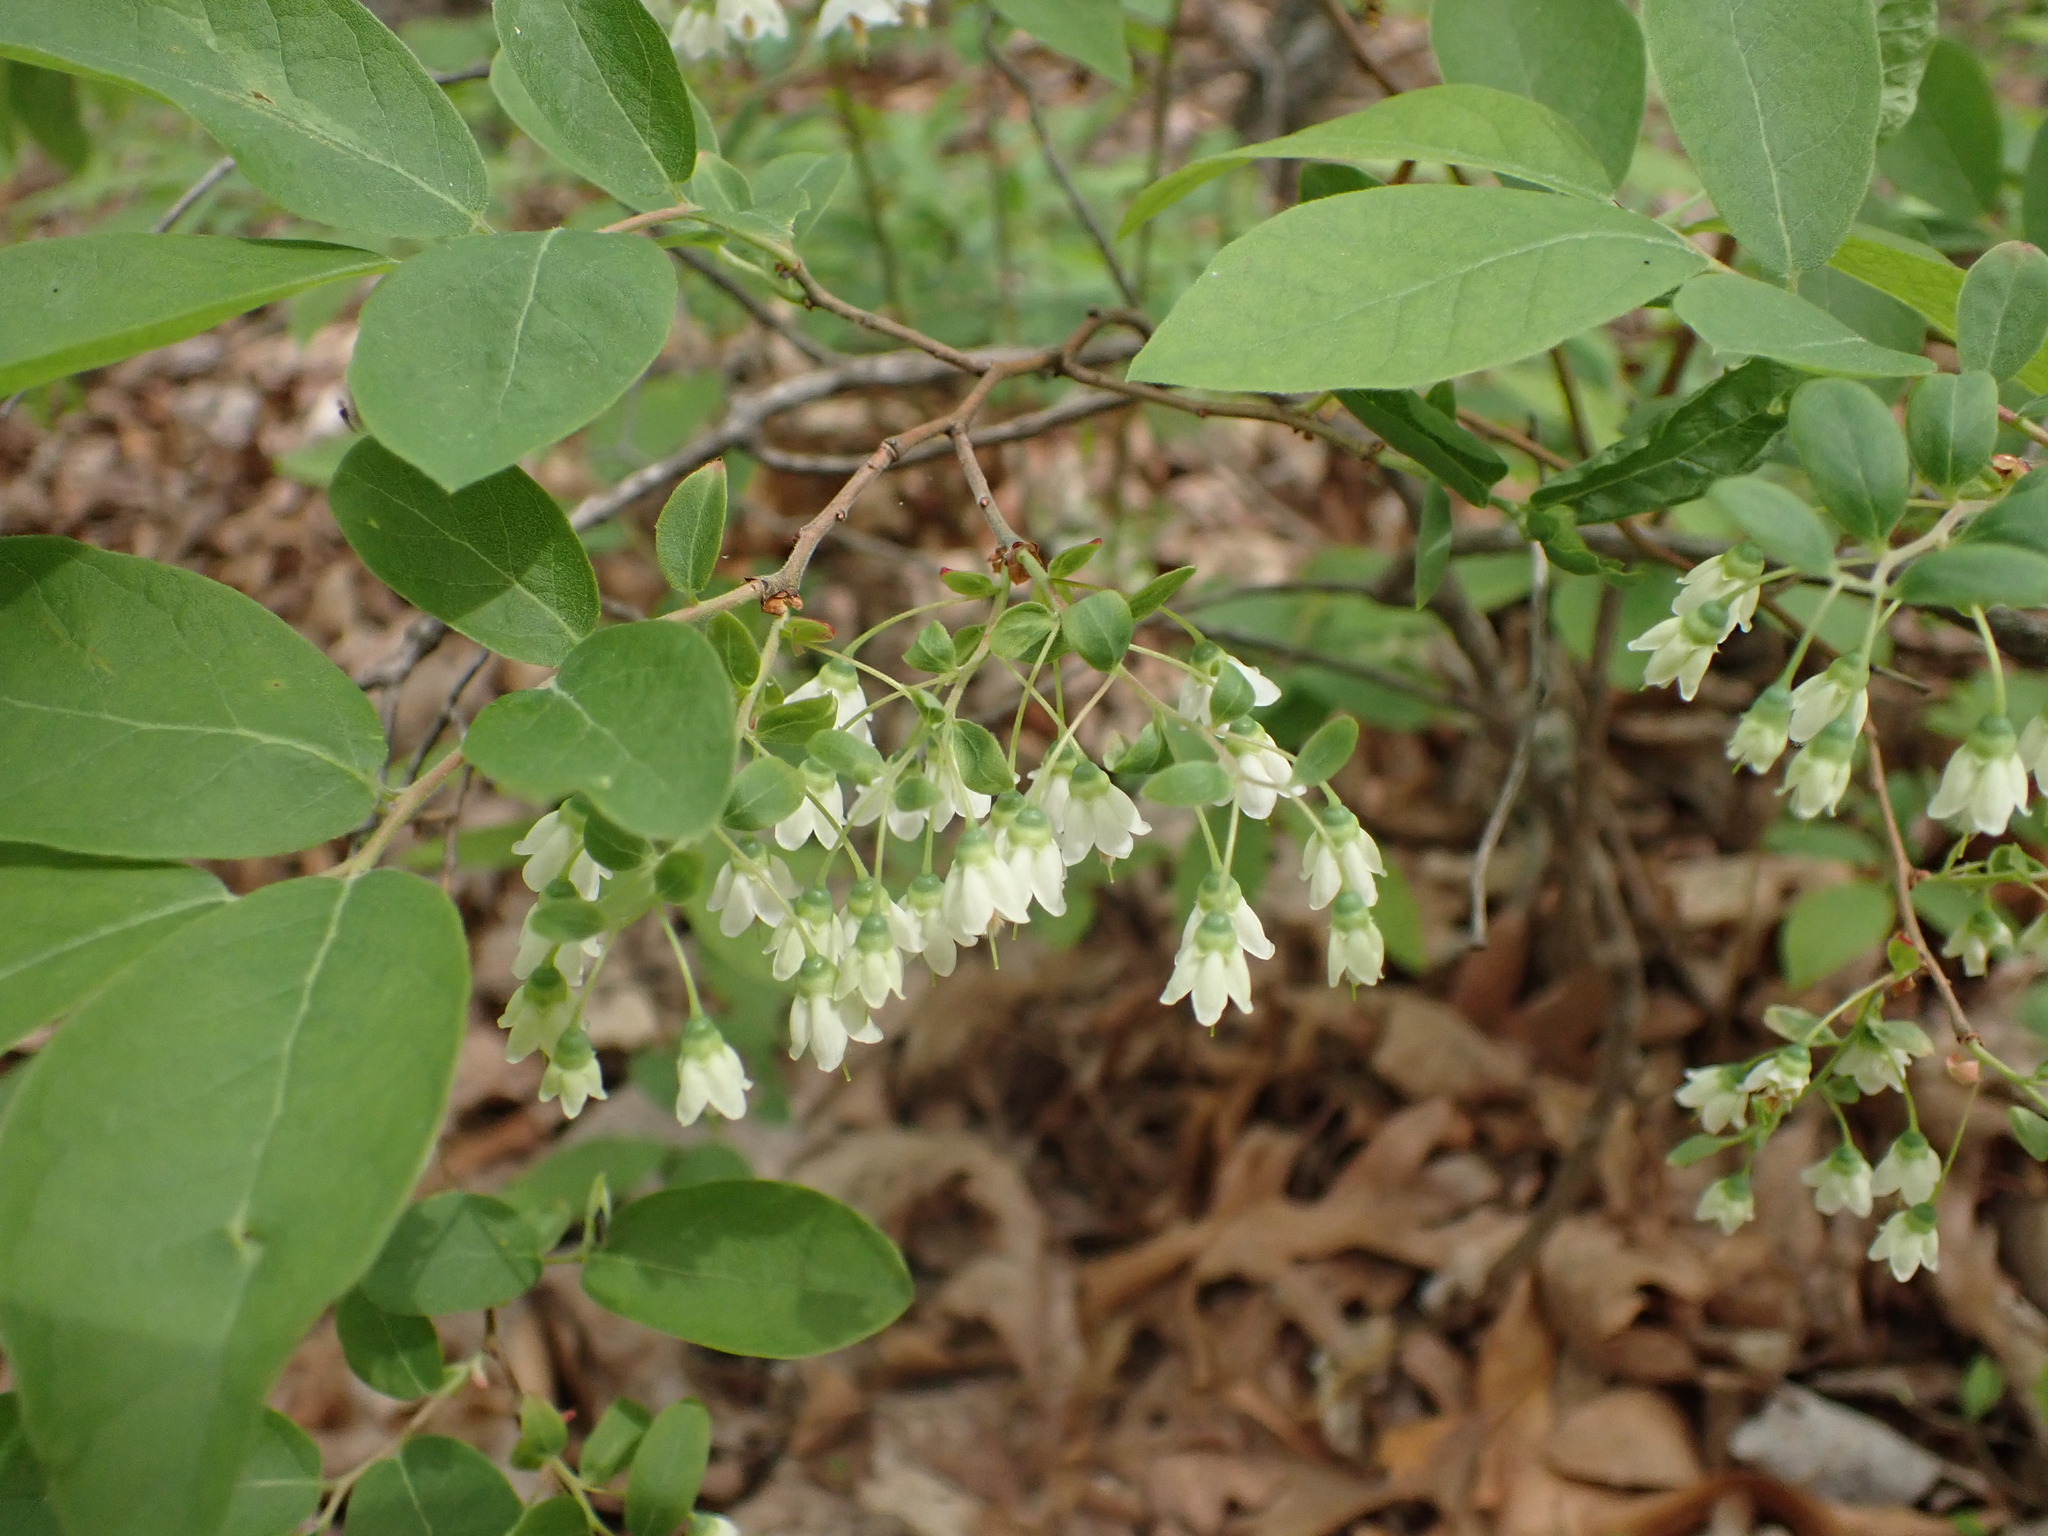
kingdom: Plantae
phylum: Tracheophyta
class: Magnoliopsida
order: Ericales
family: Ericaceae
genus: Vaccinium
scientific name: Vaccinium stamineum
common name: Deerberry
